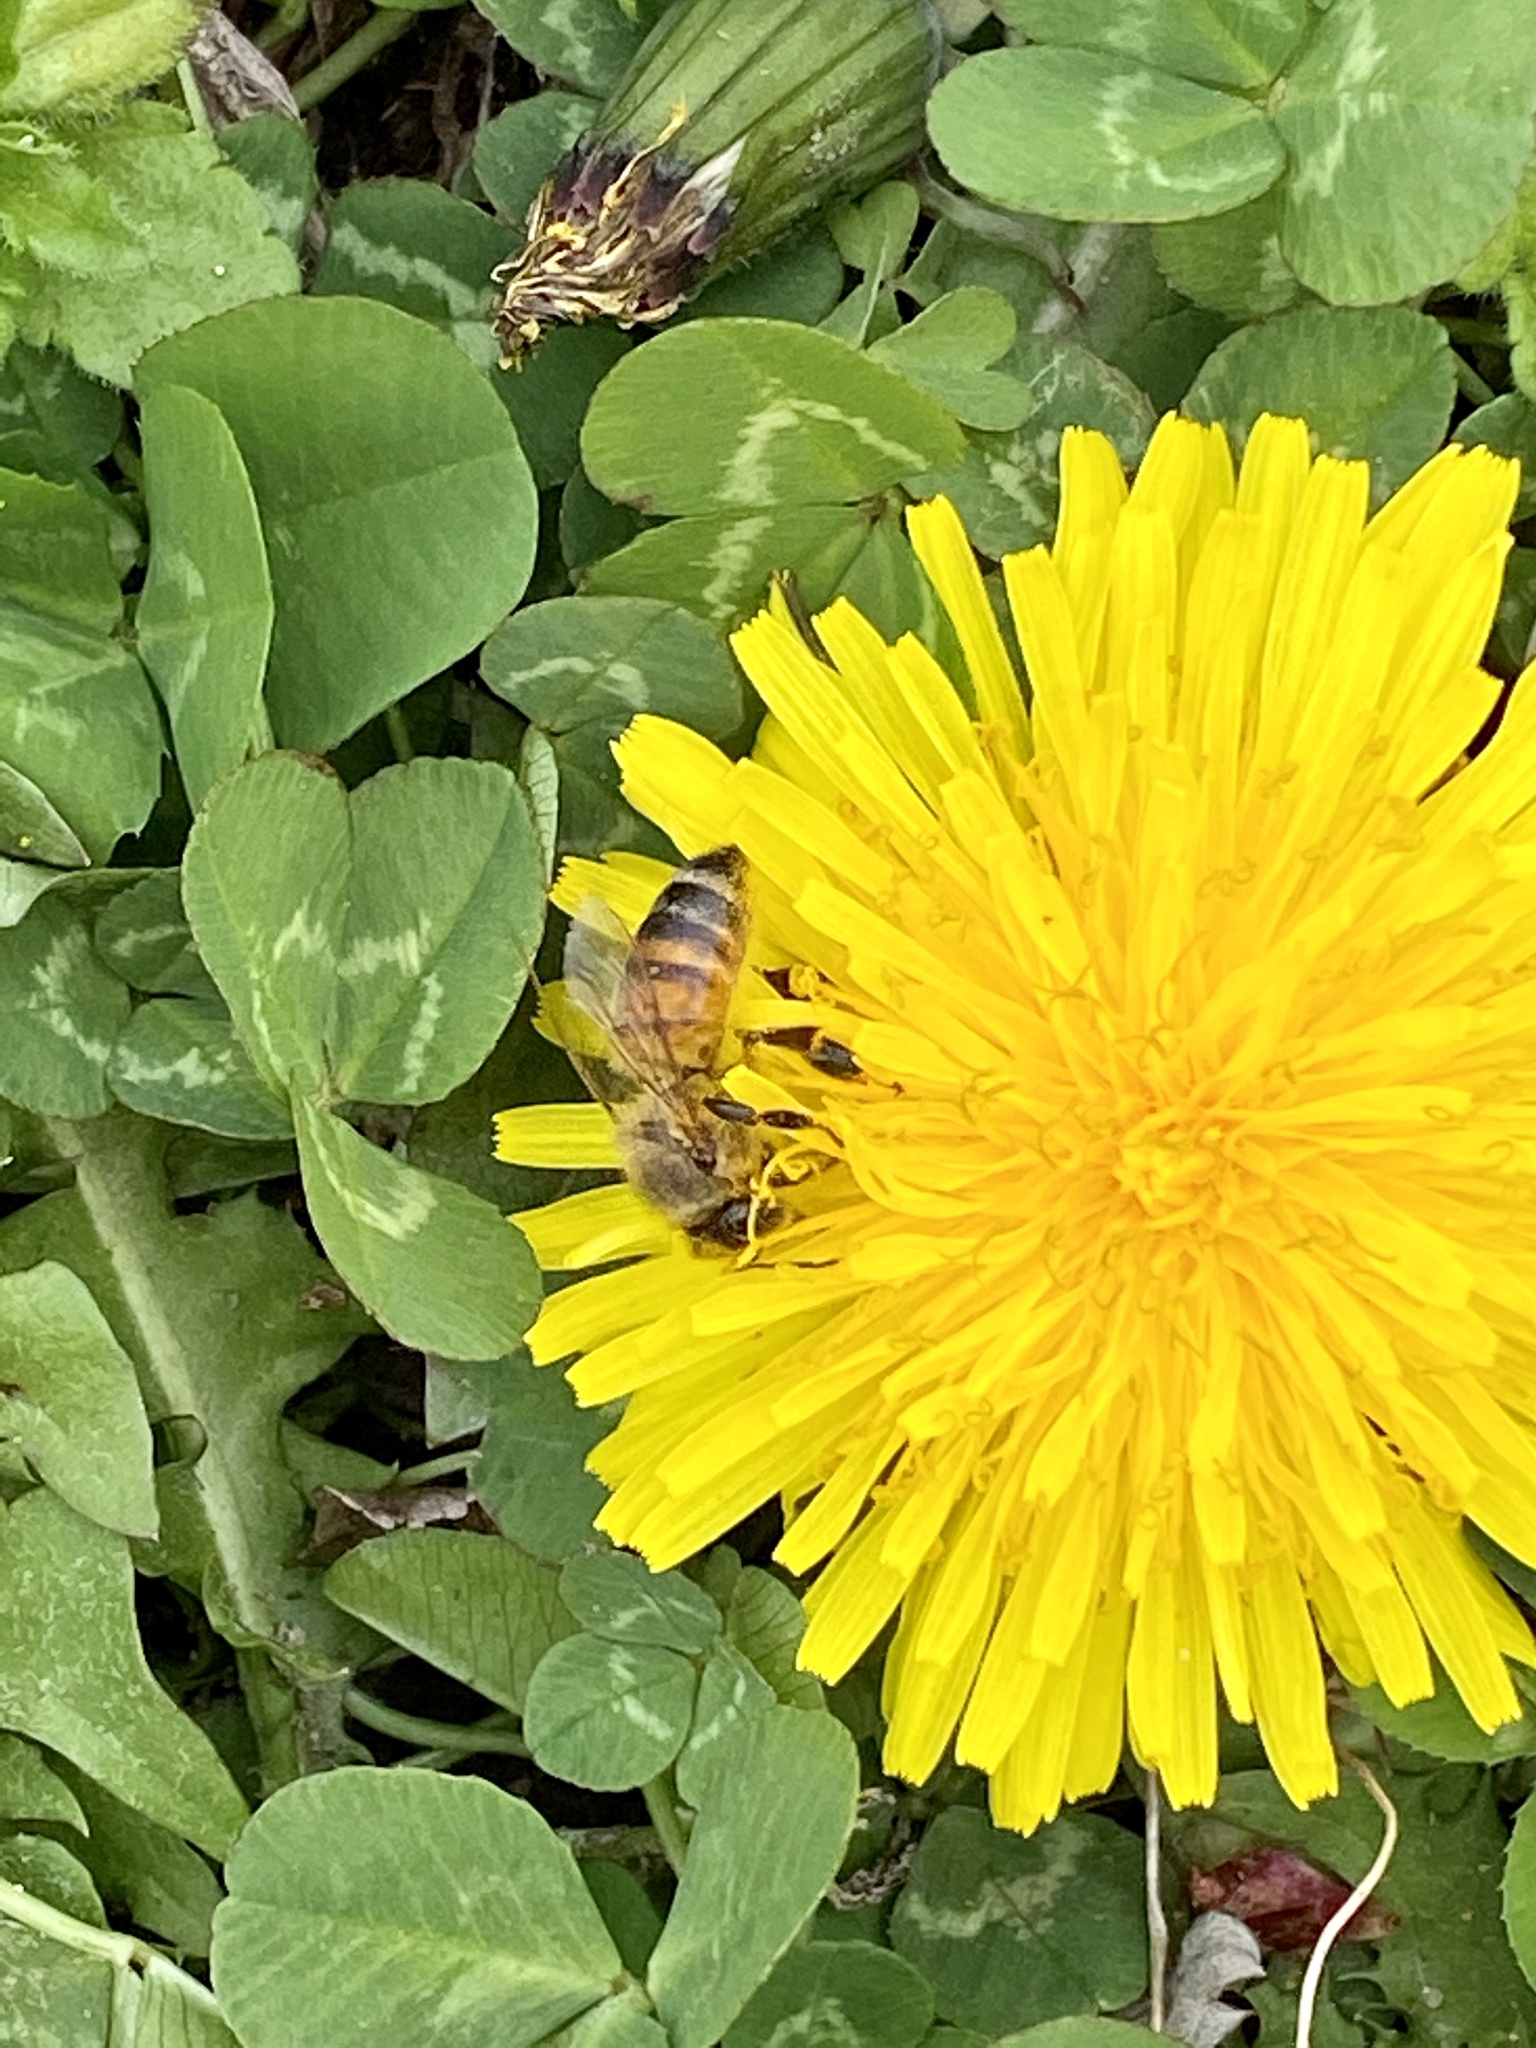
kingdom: Animalia
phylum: Arthropoda
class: Insecta
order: Hymenoptera
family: Apidae
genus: Apis
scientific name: Apis mellifera
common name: Honey bee
